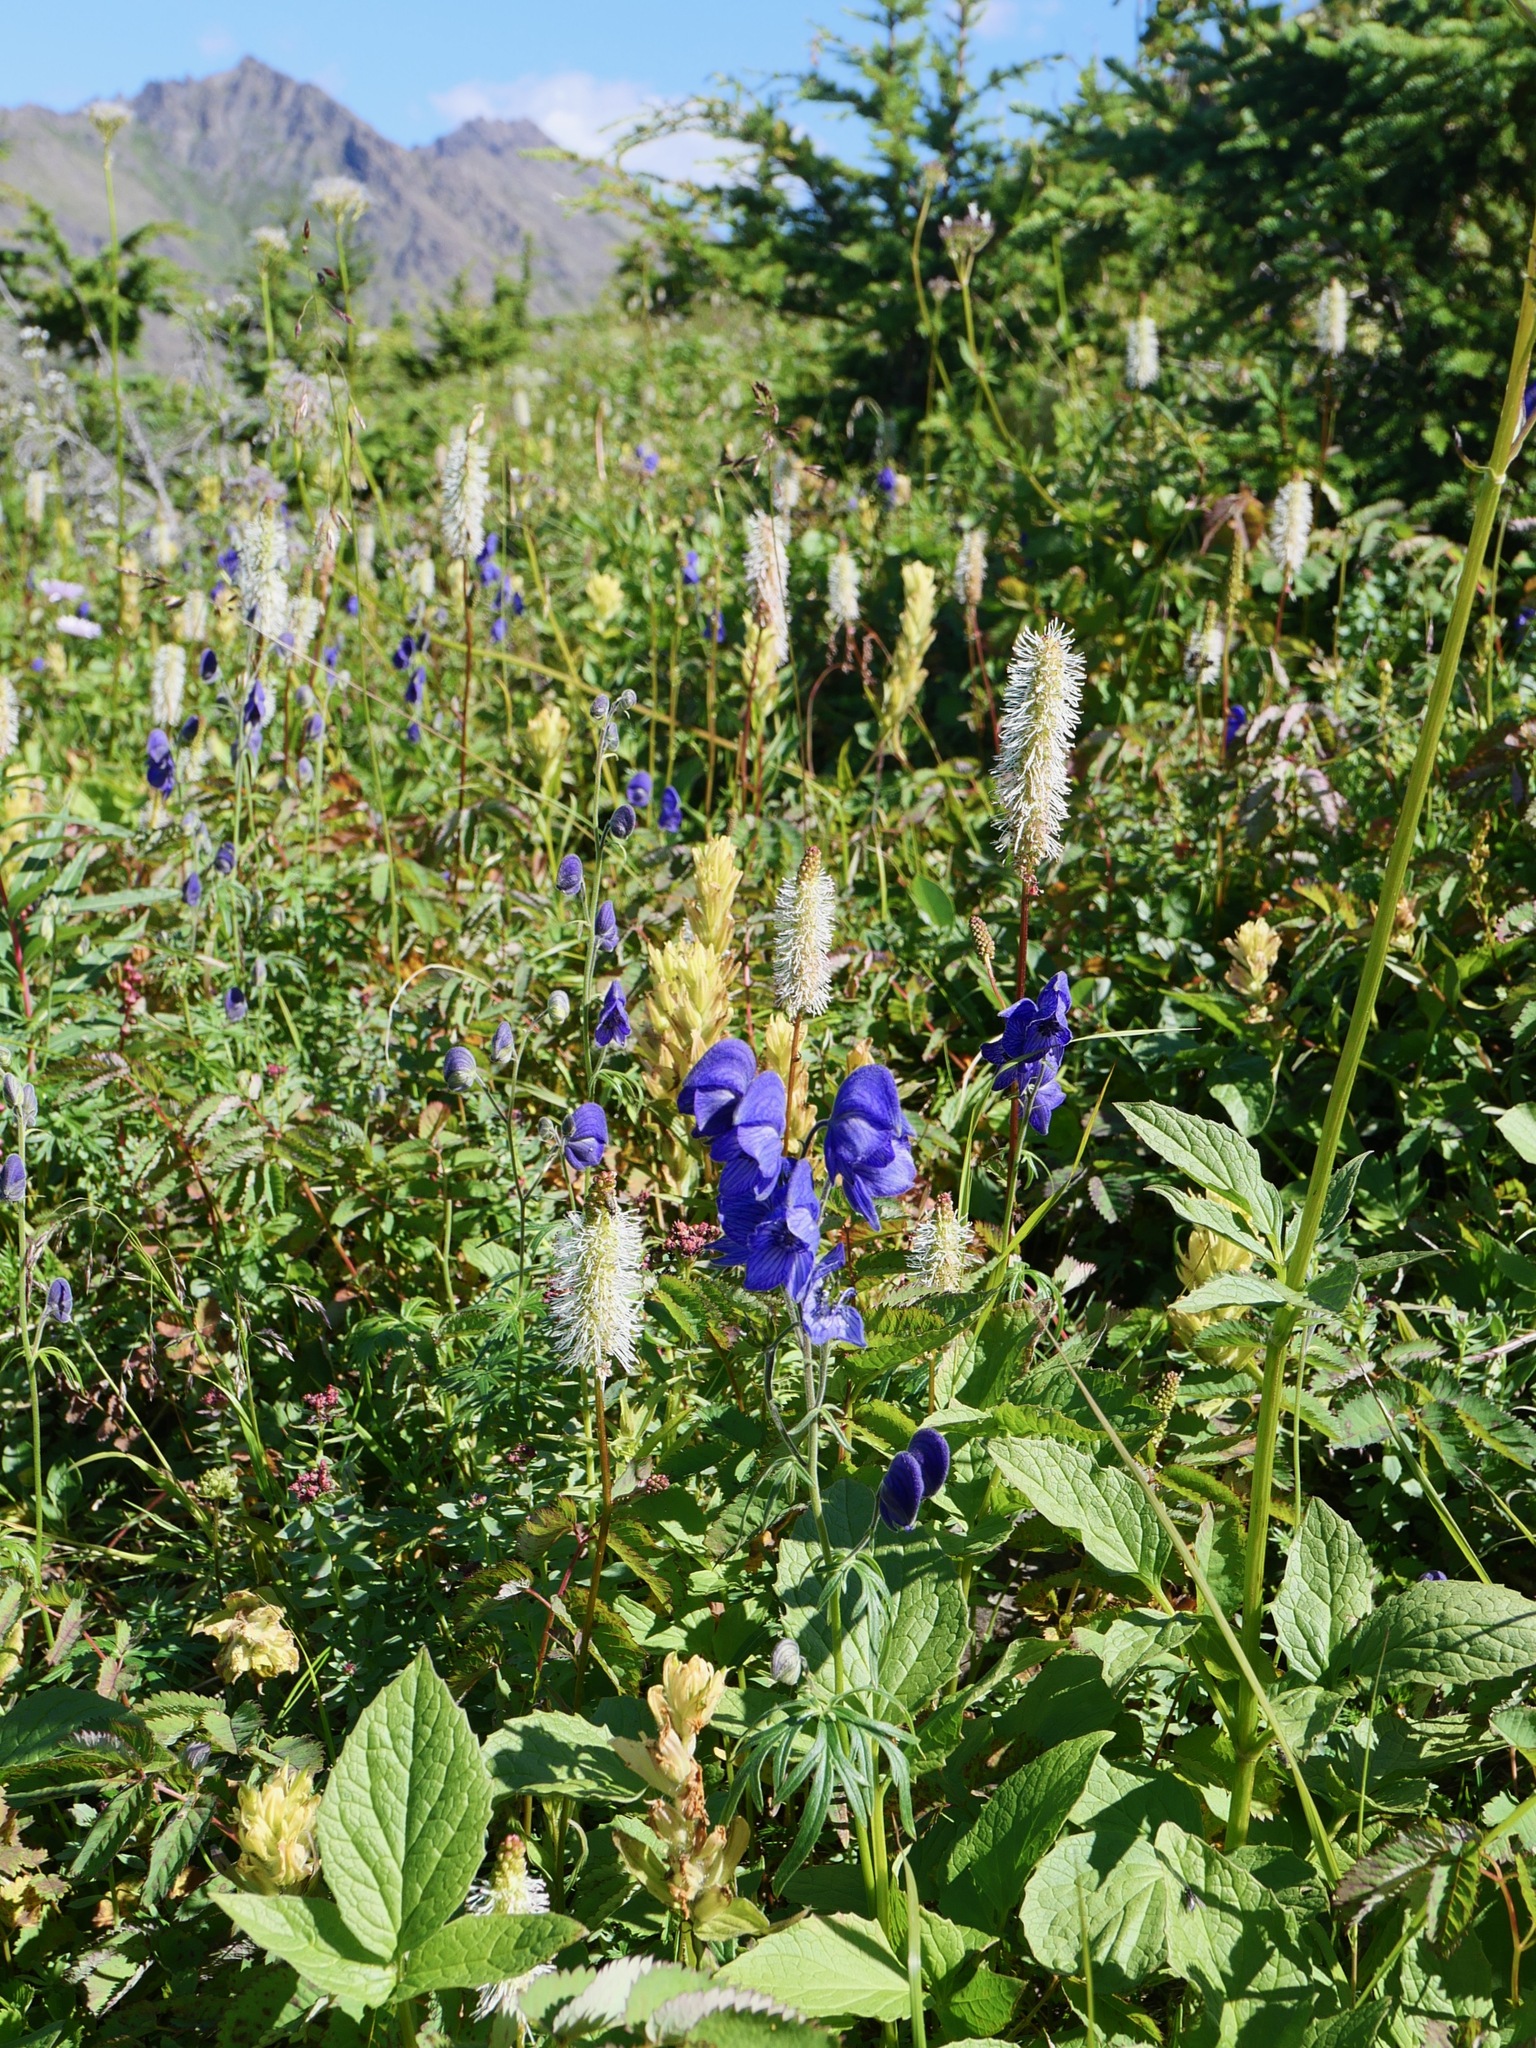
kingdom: Plantae
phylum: Tracheophyta
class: Magnoliopsida
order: Ranunculales
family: Ranunculaceae
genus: Aconitum
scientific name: Aconitum delphiniifolium
